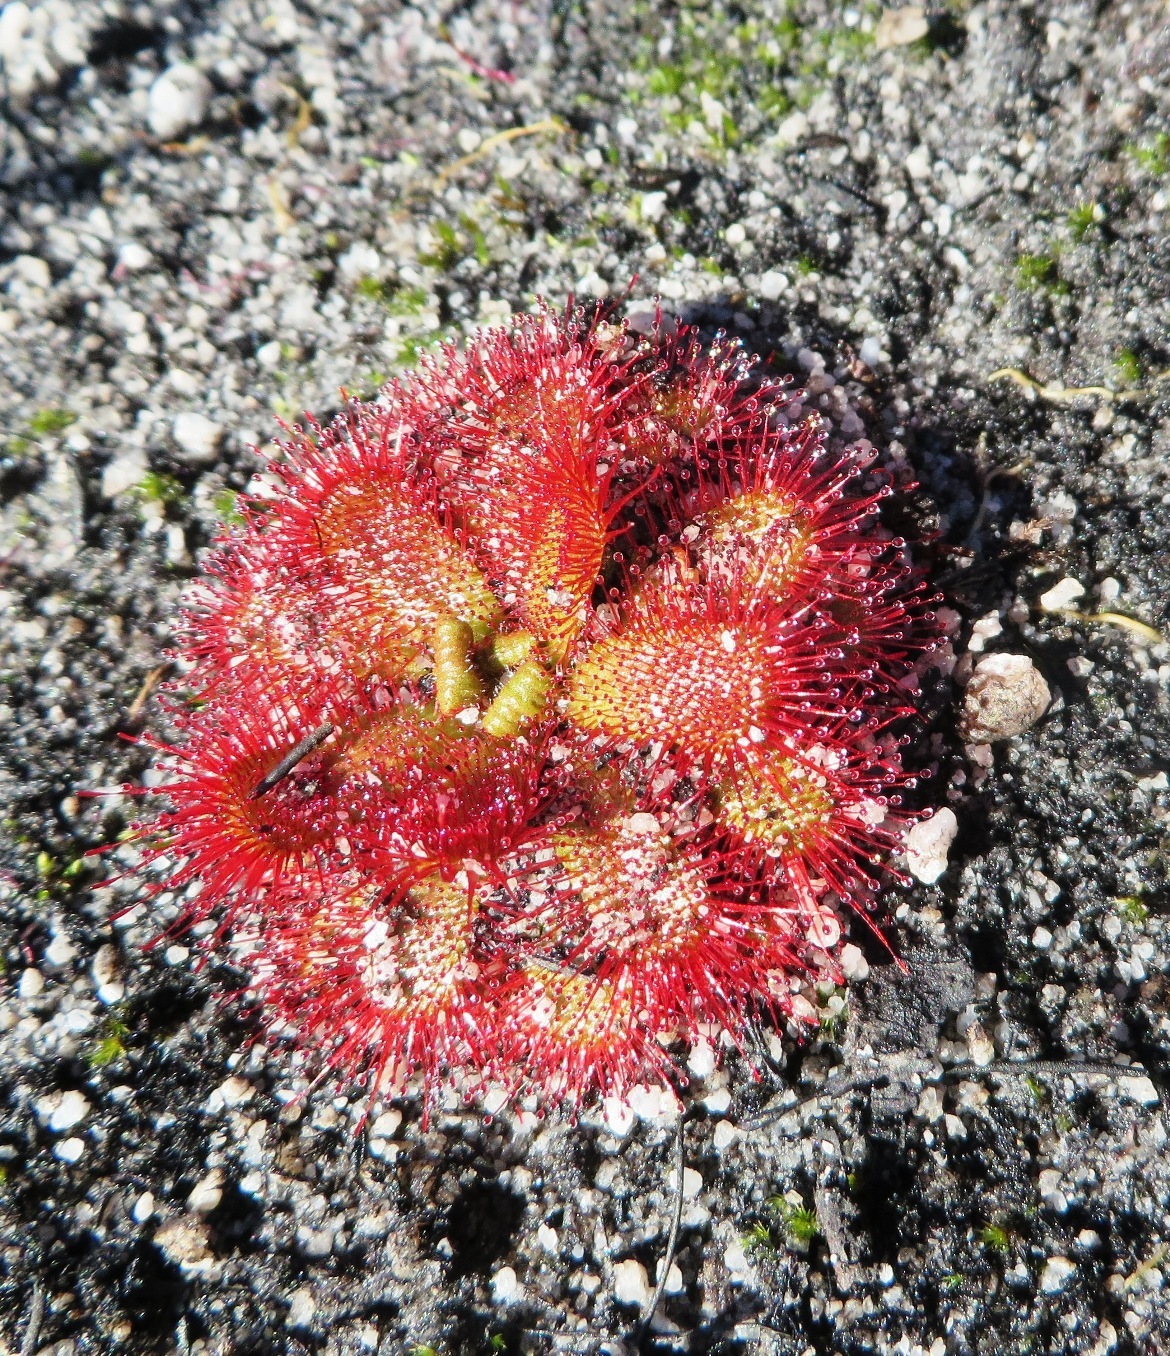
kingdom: Plantae
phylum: Tracheophyta
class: Magnoliopsida
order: Caryophyllales
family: Droseraceae
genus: Drosera
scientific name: Drosera trinervia
